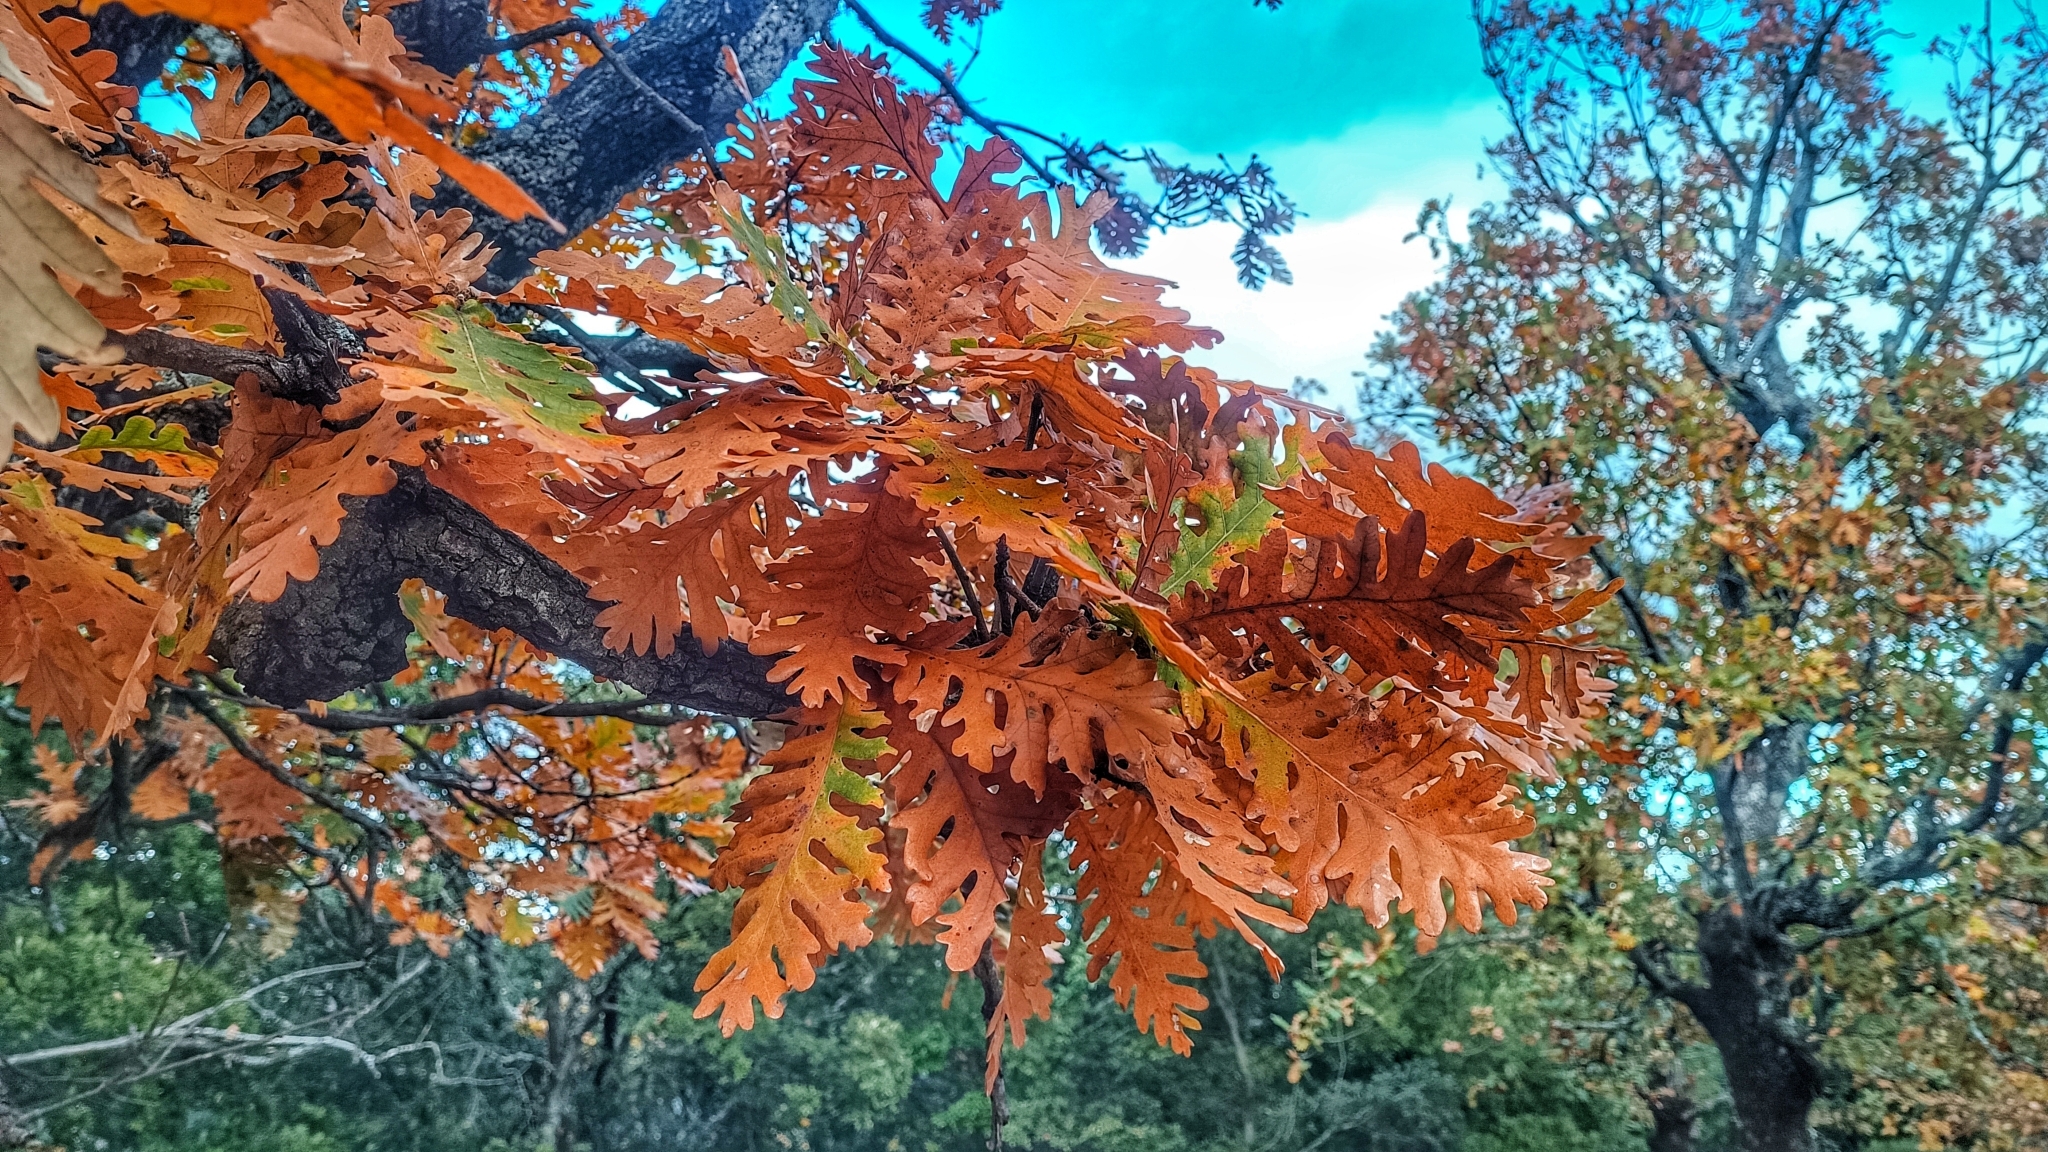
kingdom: Plantae
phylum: Tracheophyta
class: Magnoliopsida
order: Fagales
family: Fagaceae
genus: Quercus
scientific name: Quercus conferta
